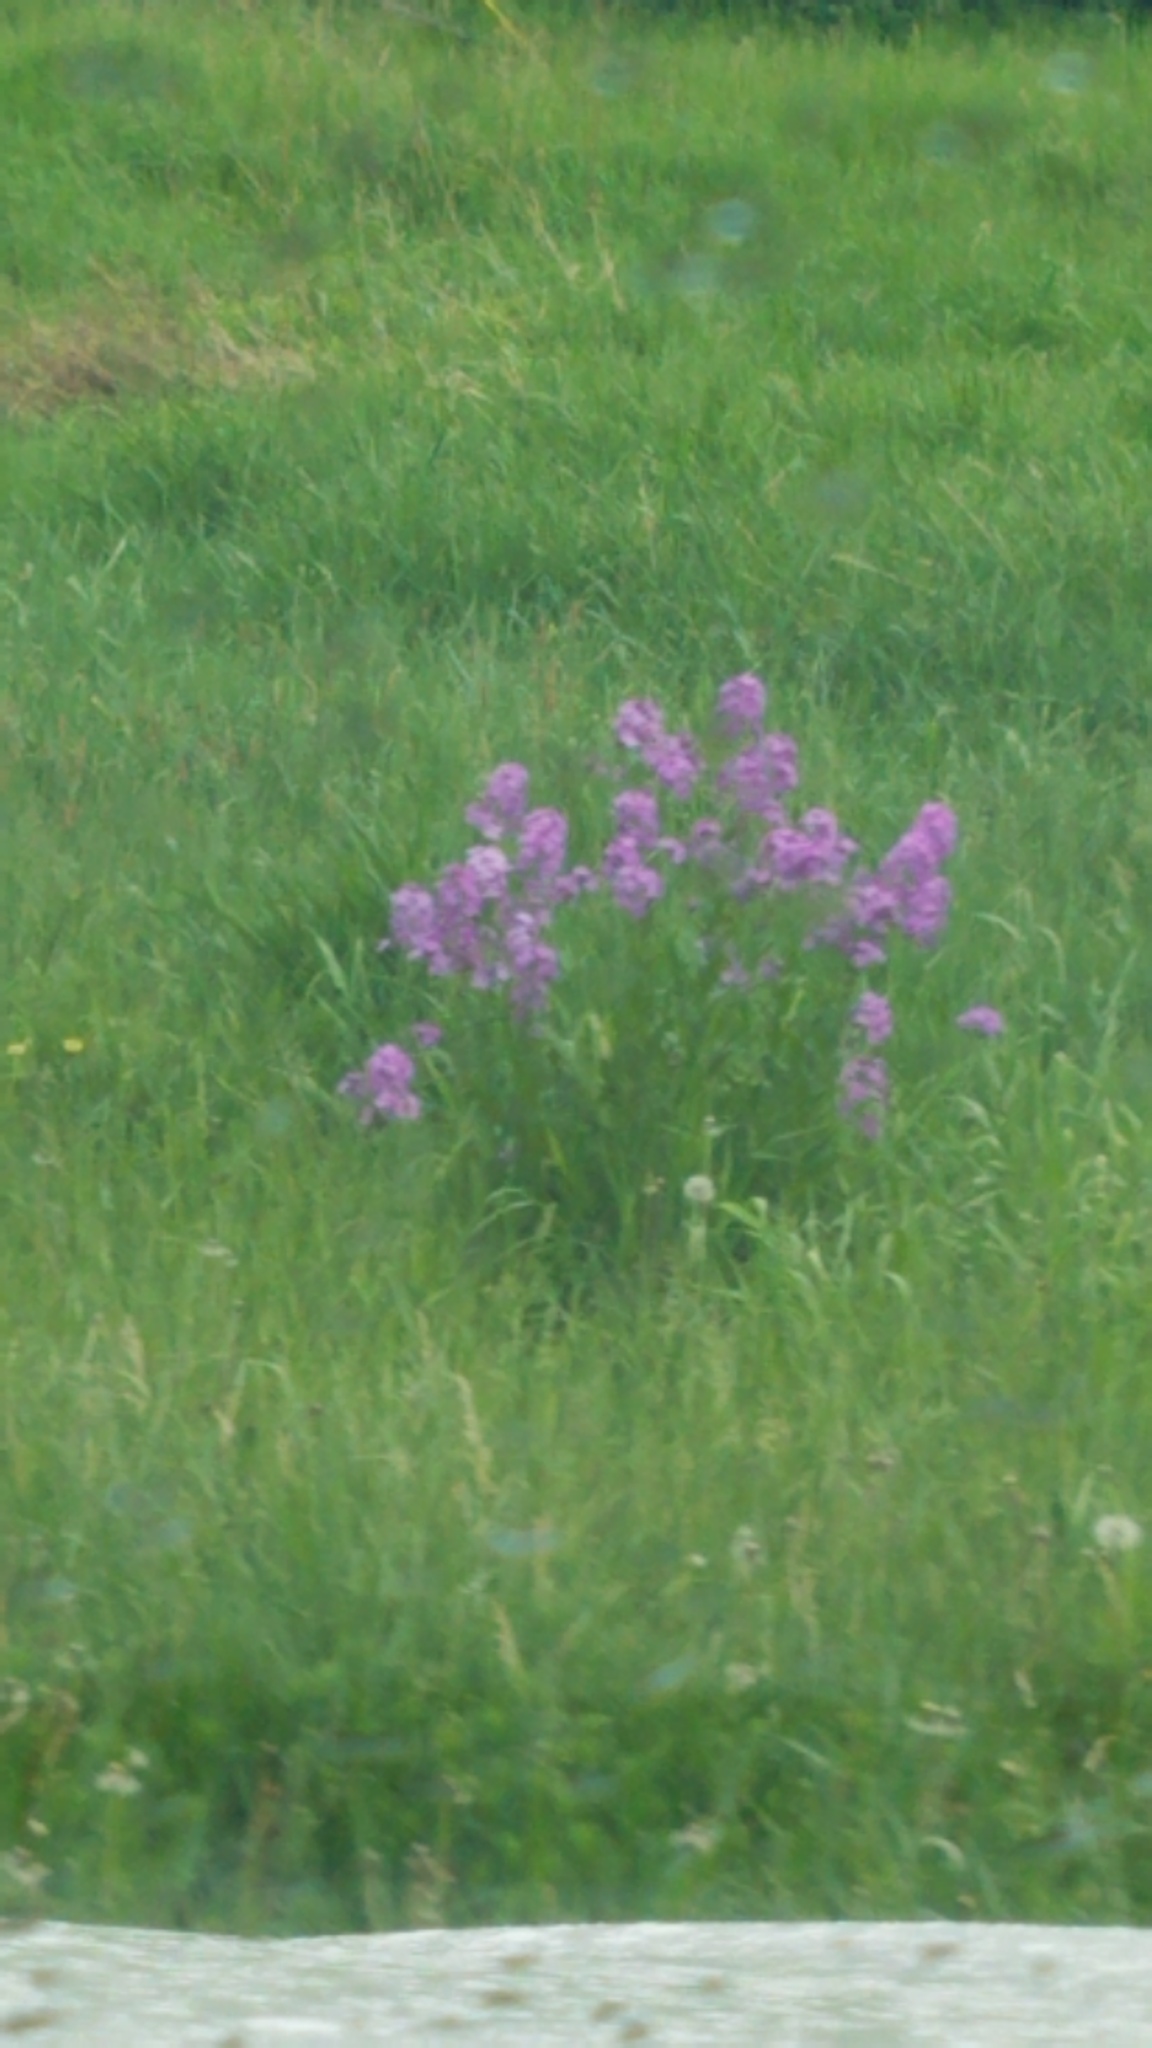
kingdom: Plantae
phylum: Tracheophyta
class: Magnoliopsida
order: Brassicales
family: Brassicaceae
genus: Hesperis
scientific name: Hesperis matronalis
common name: Dame's-violet
